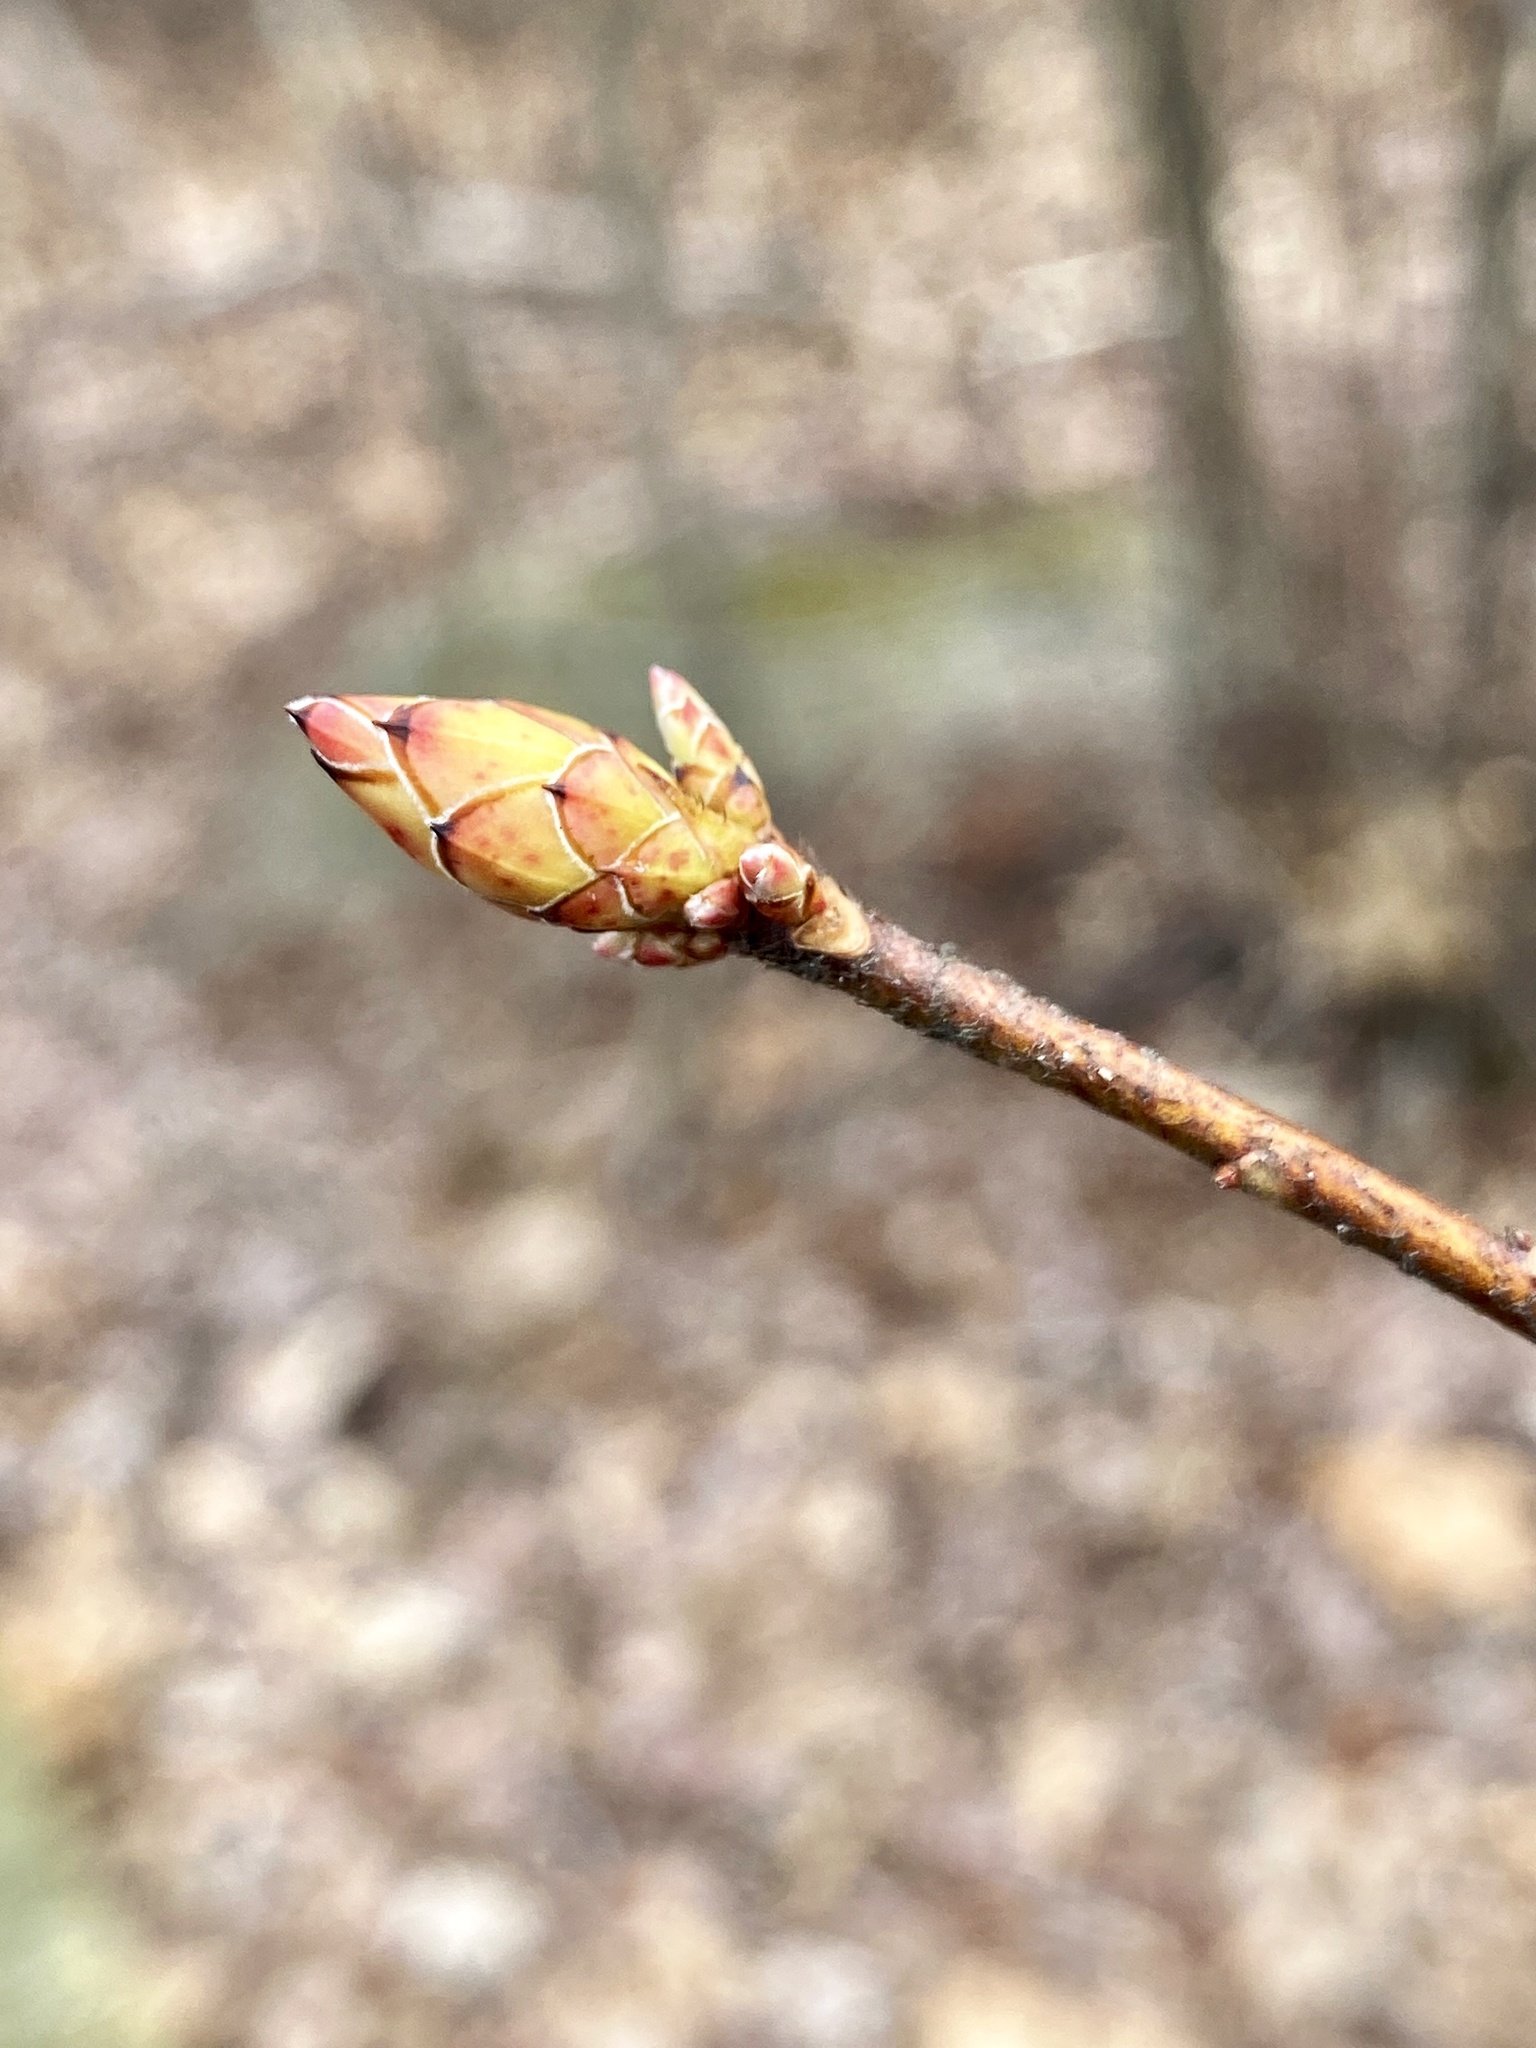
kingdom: Plantae
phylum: Tracheophyta
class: Magnoliopsida
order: Ericales
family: Ericaceae
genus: Rhododendron
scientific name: Rhododendron viscosum
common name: Clammy azalea
